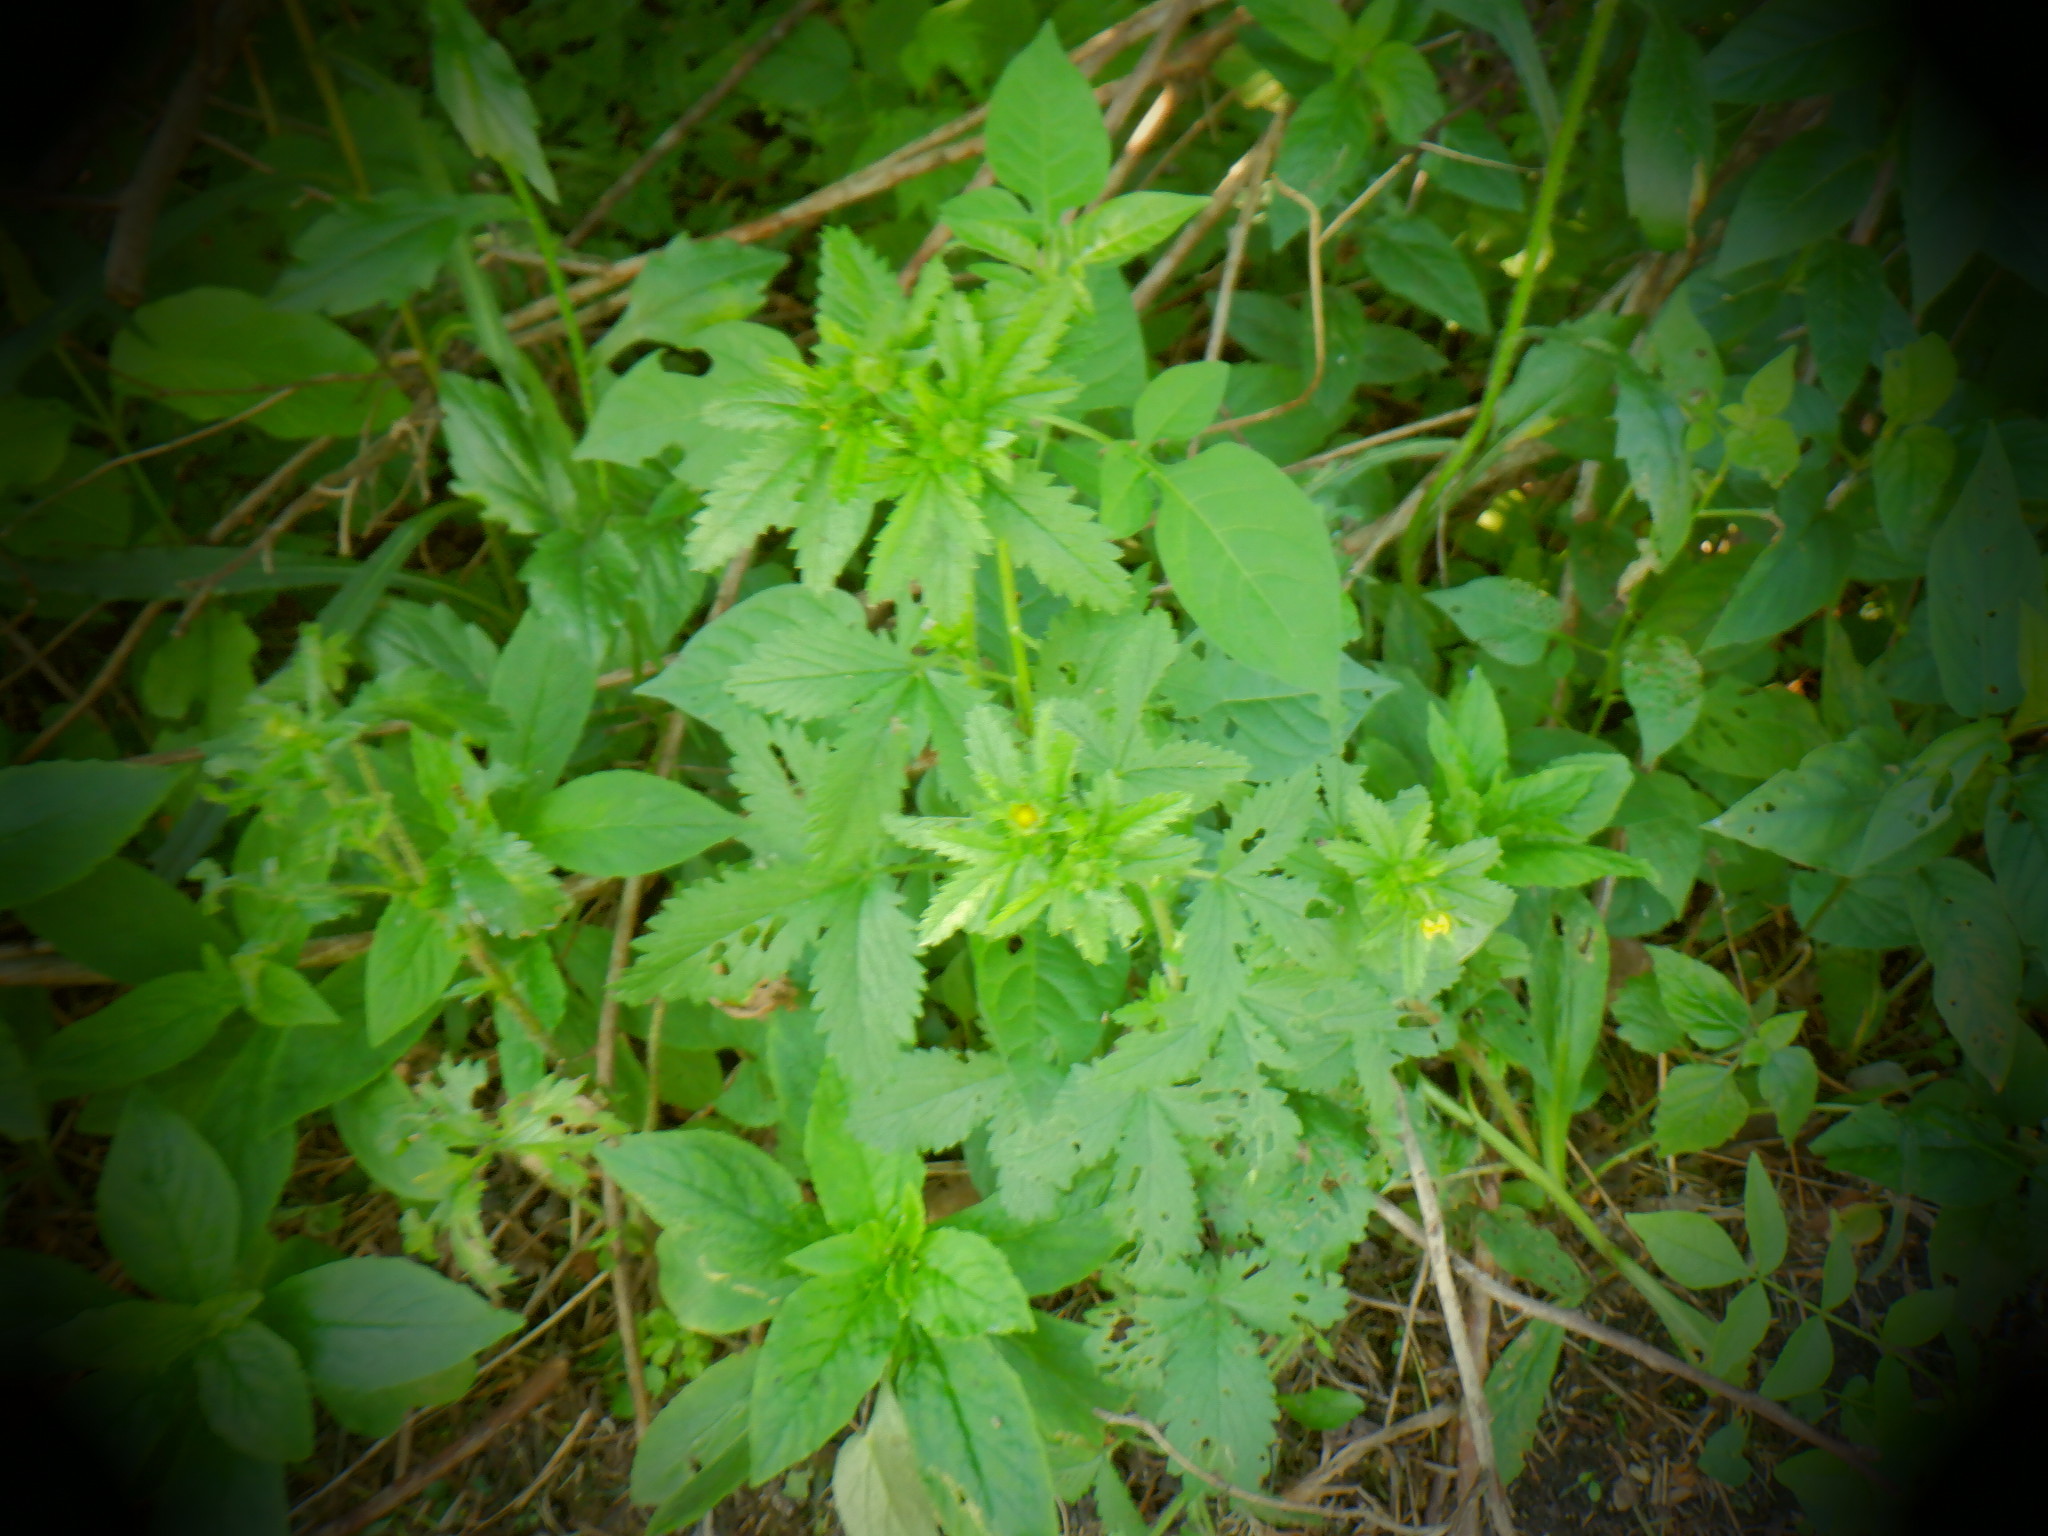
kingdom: Plantae
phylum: Tracheophyta
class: Magnoliopsida
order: Rosales
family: Rosaceae
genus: Potentilla
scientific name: Potentilla norvegica
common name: Ternate-leaved cinquefoil
